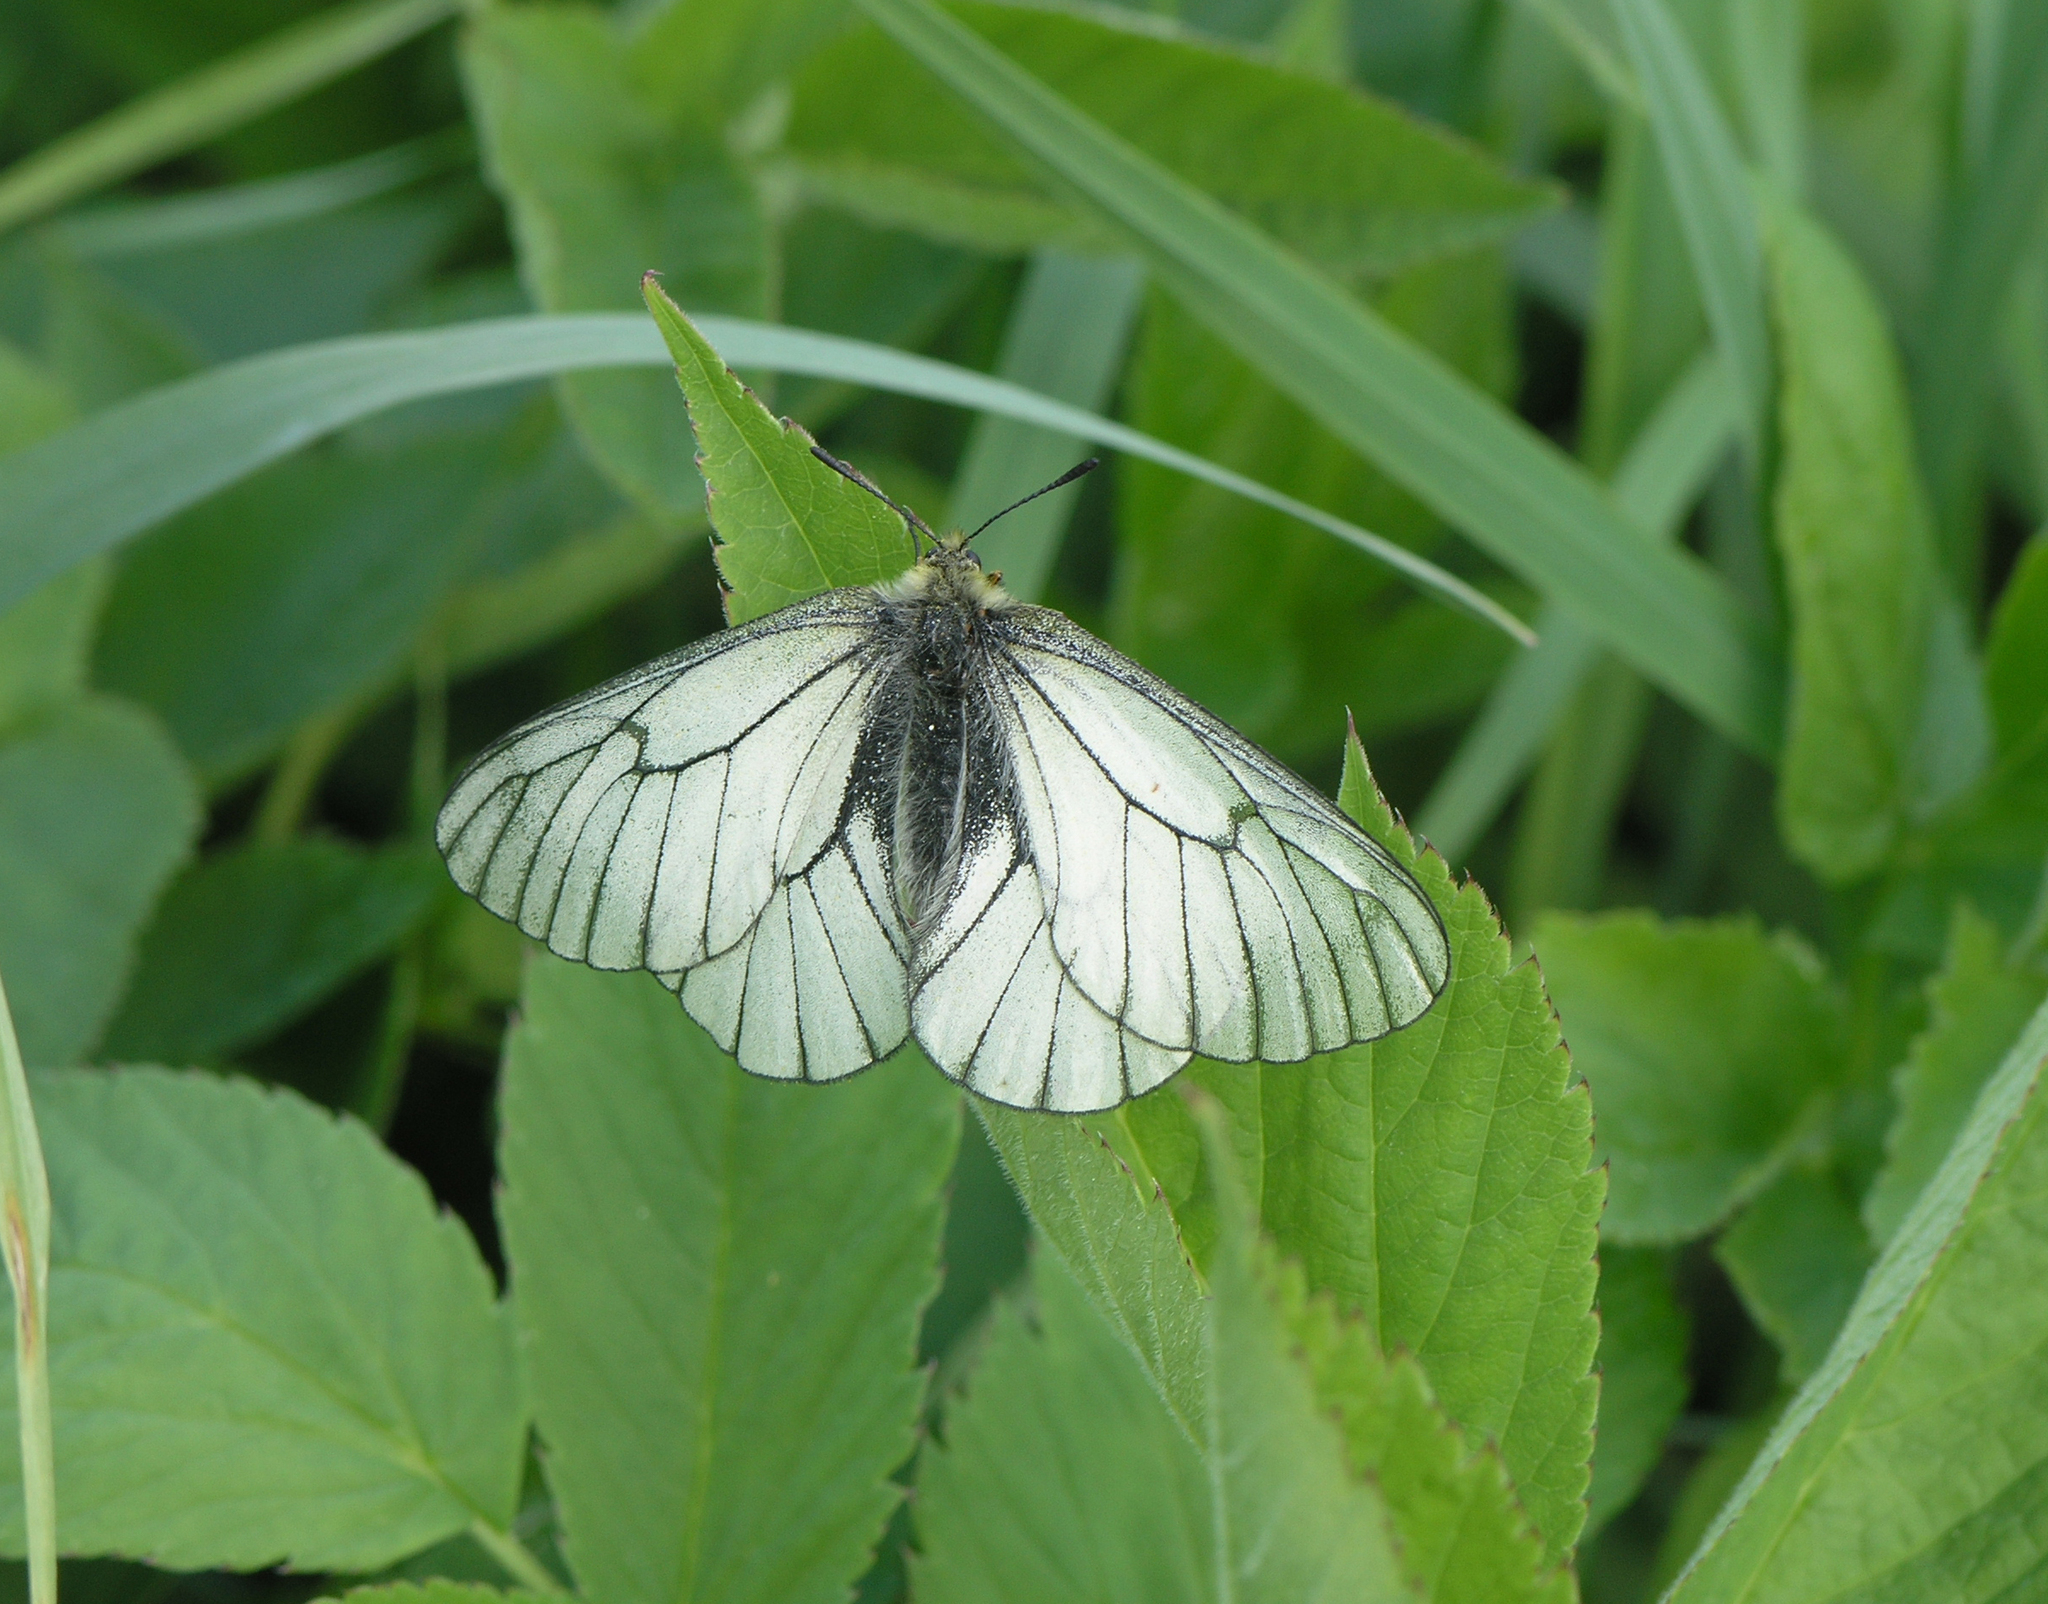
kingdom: Animalia
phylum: Arthropoda
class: Insecta
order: Lepidoptera
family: Papilionidae
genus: Parnassius
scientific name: Parnassius stubbendorfii
